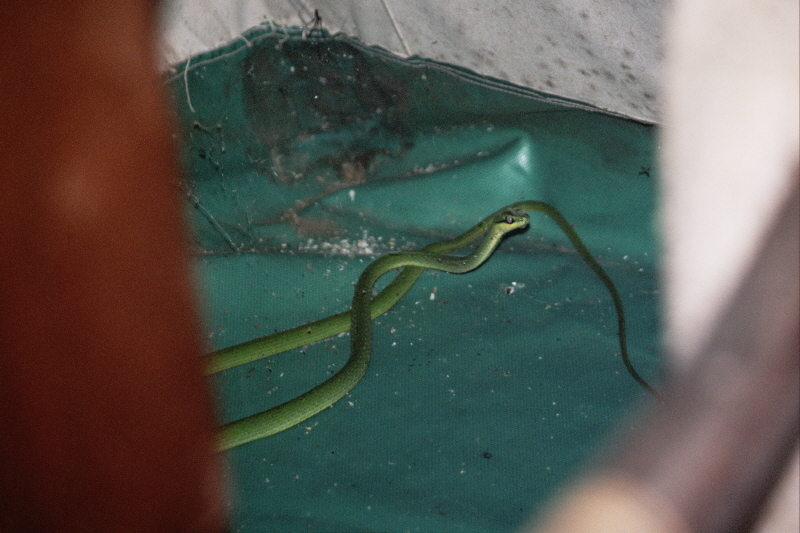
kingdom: Animalia
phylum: Chordata
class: Squamata
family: Colubridae
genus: Hapsidophrys
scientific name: Hapsidophrys smaragdinus
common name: Emerald snake
